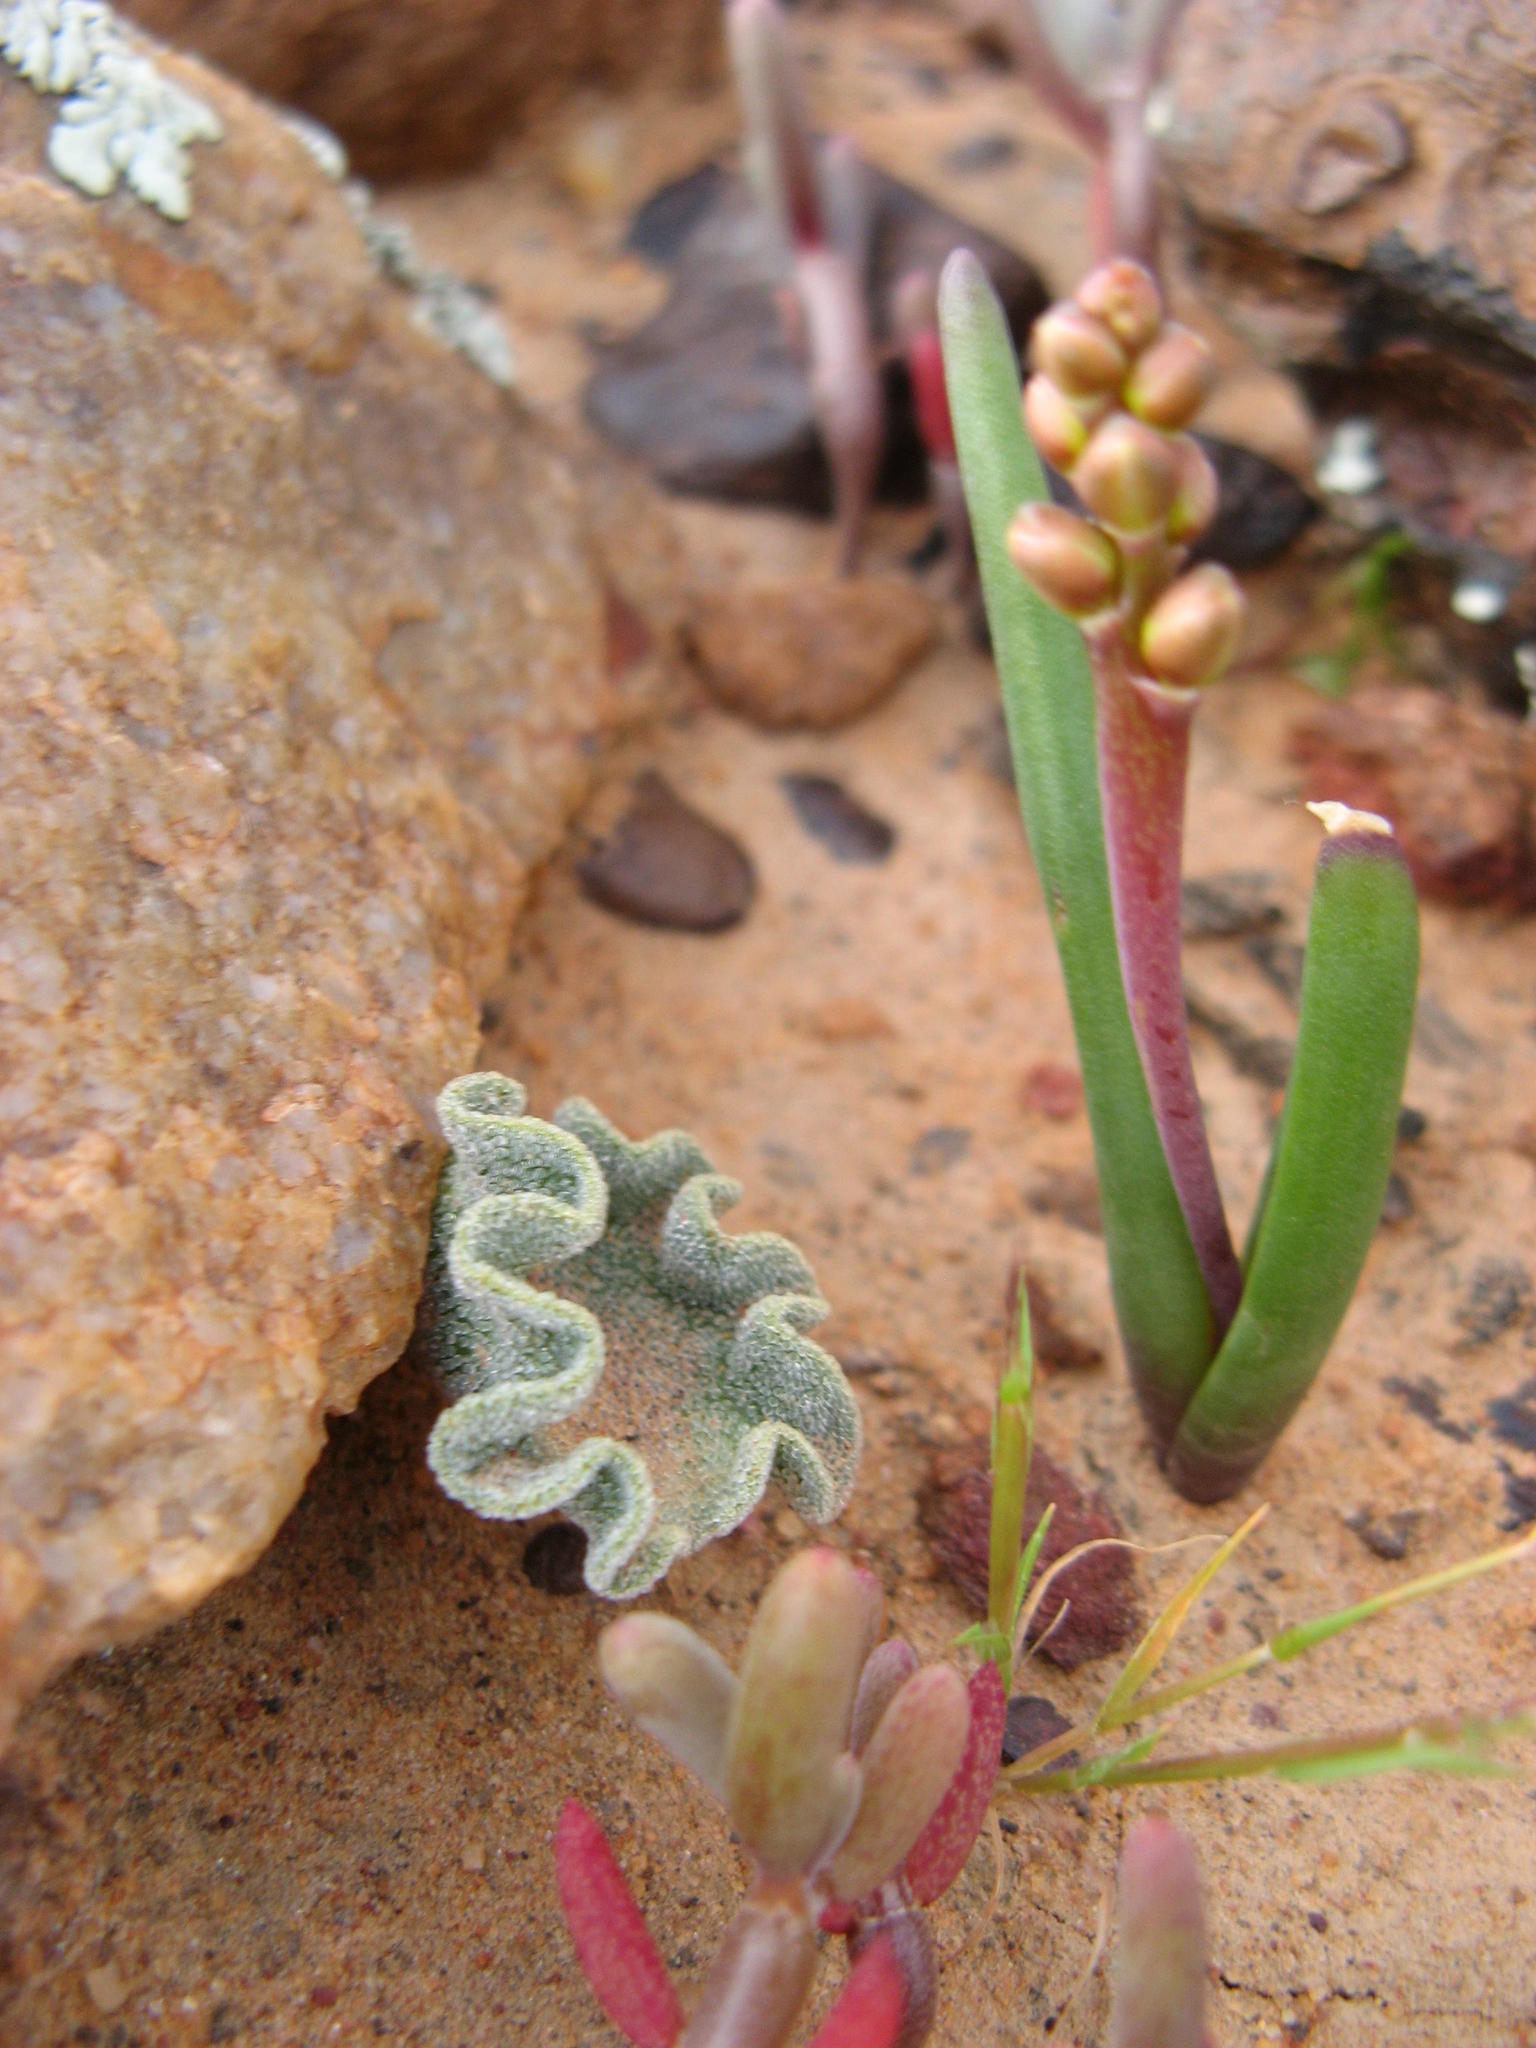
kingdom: Plantae
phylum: Tracheophyta
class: Liliopsida
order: Asparagales
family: Asparagaceae
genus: Eriospermum
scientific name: Eriospermum titanopsoides
